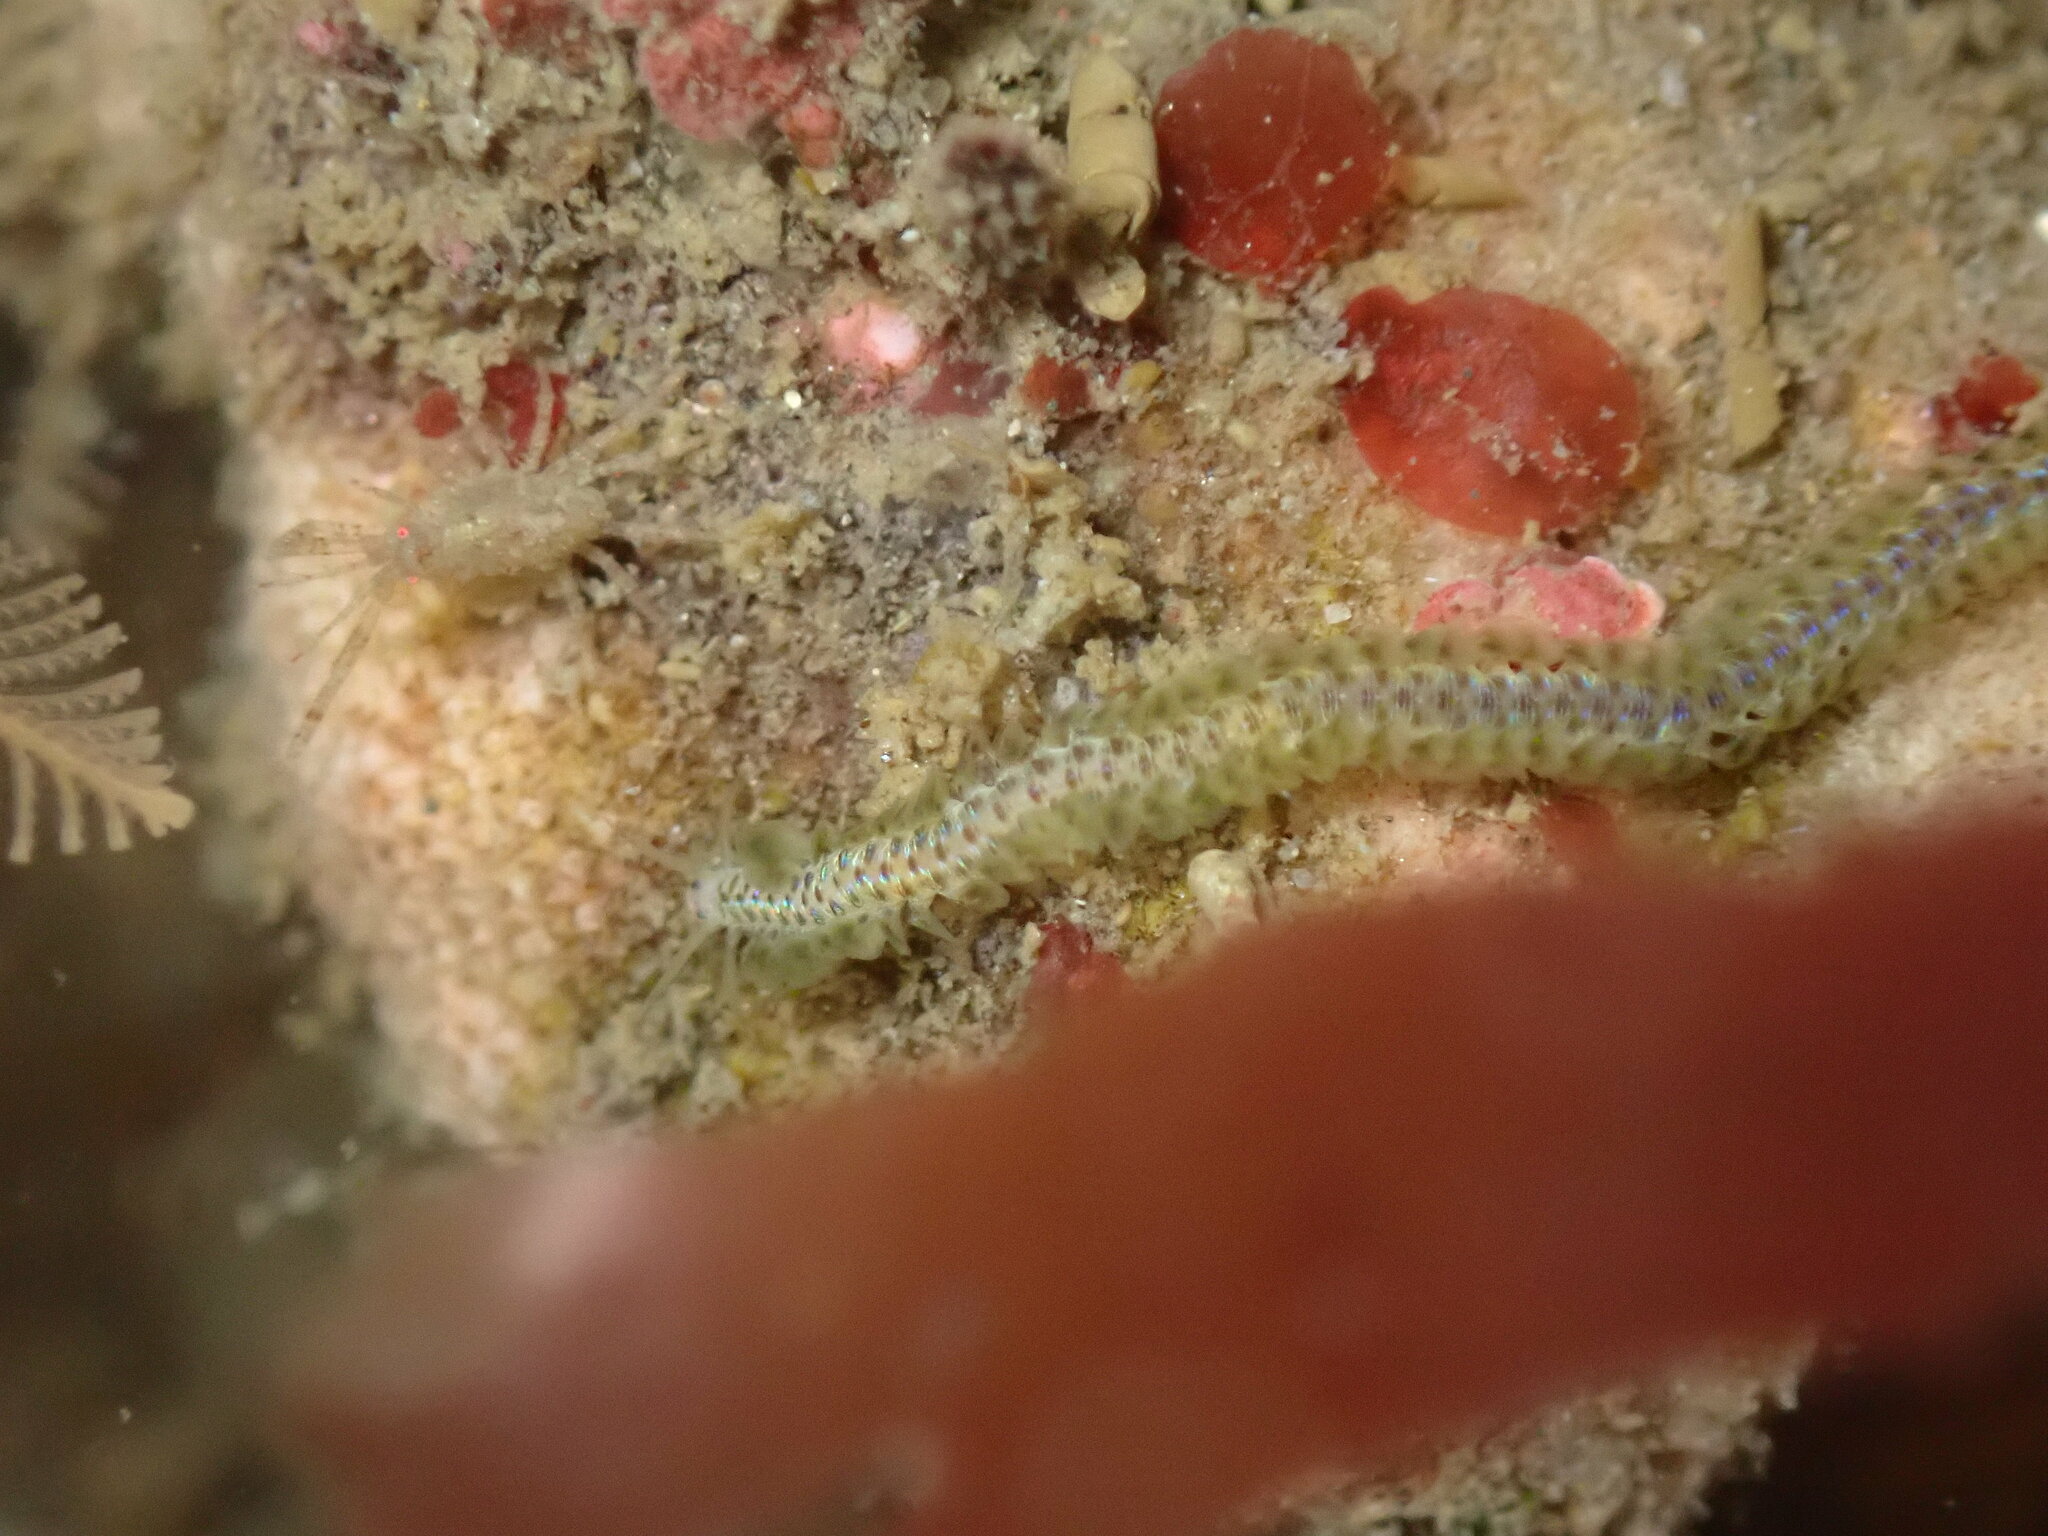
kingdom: Animalia
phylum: Annelida
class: Polychaeta
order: Phyllodocida
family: Phyllodocidae
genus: Phyllodoce
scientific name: Phyllodoce williamsi
